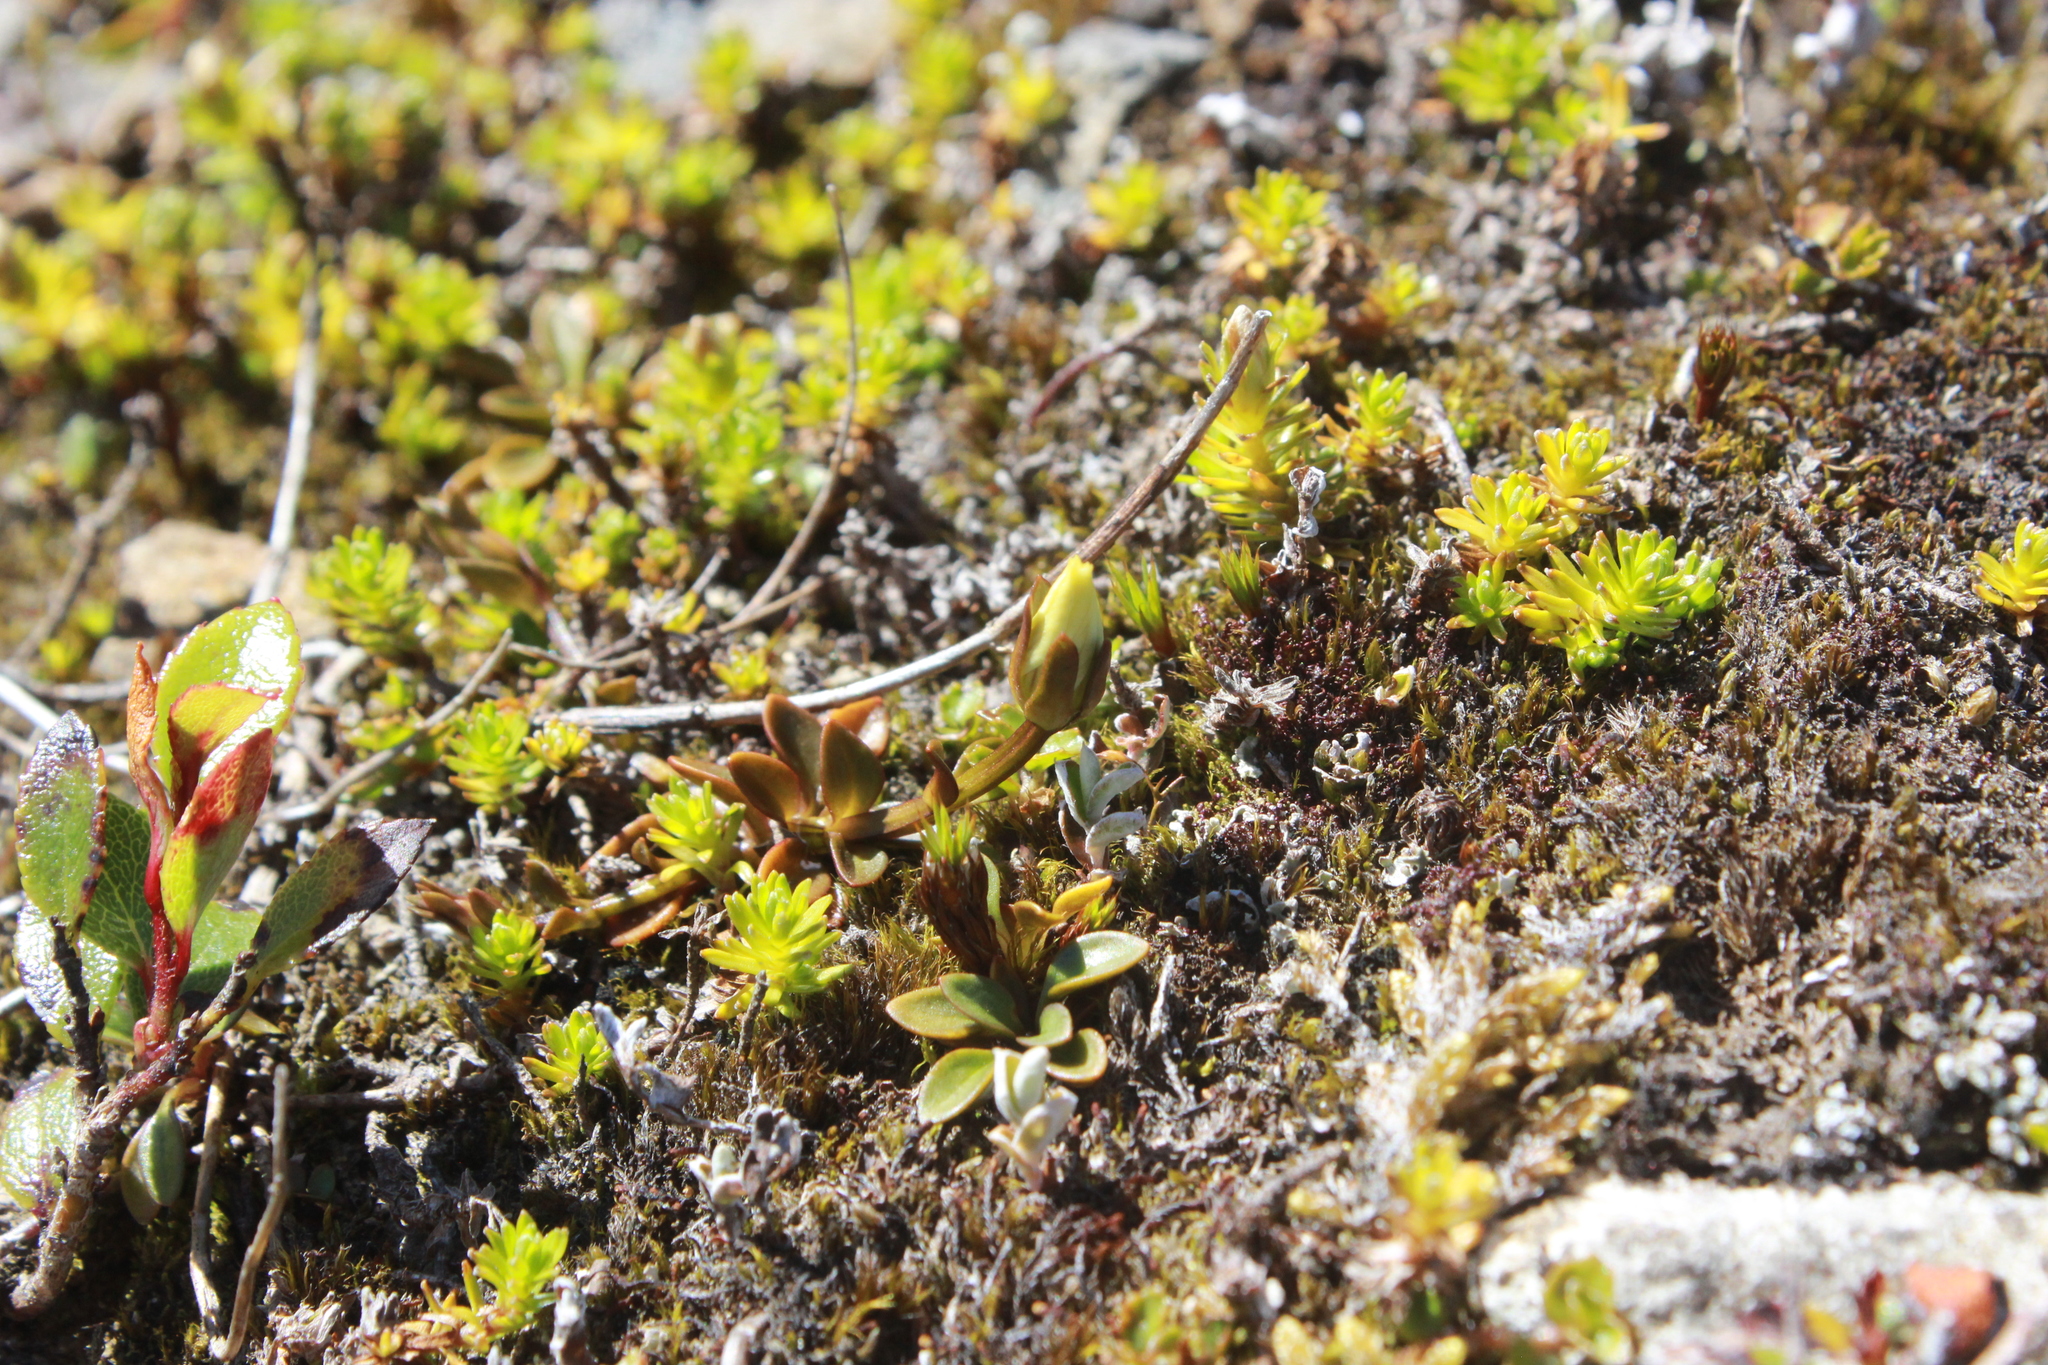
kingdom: Plantae
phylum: Tracheophyta
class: Magnoliopsida
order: Gentianales
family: Gentianaceae
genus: Gentianella
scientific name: Gentianella grisebachii
